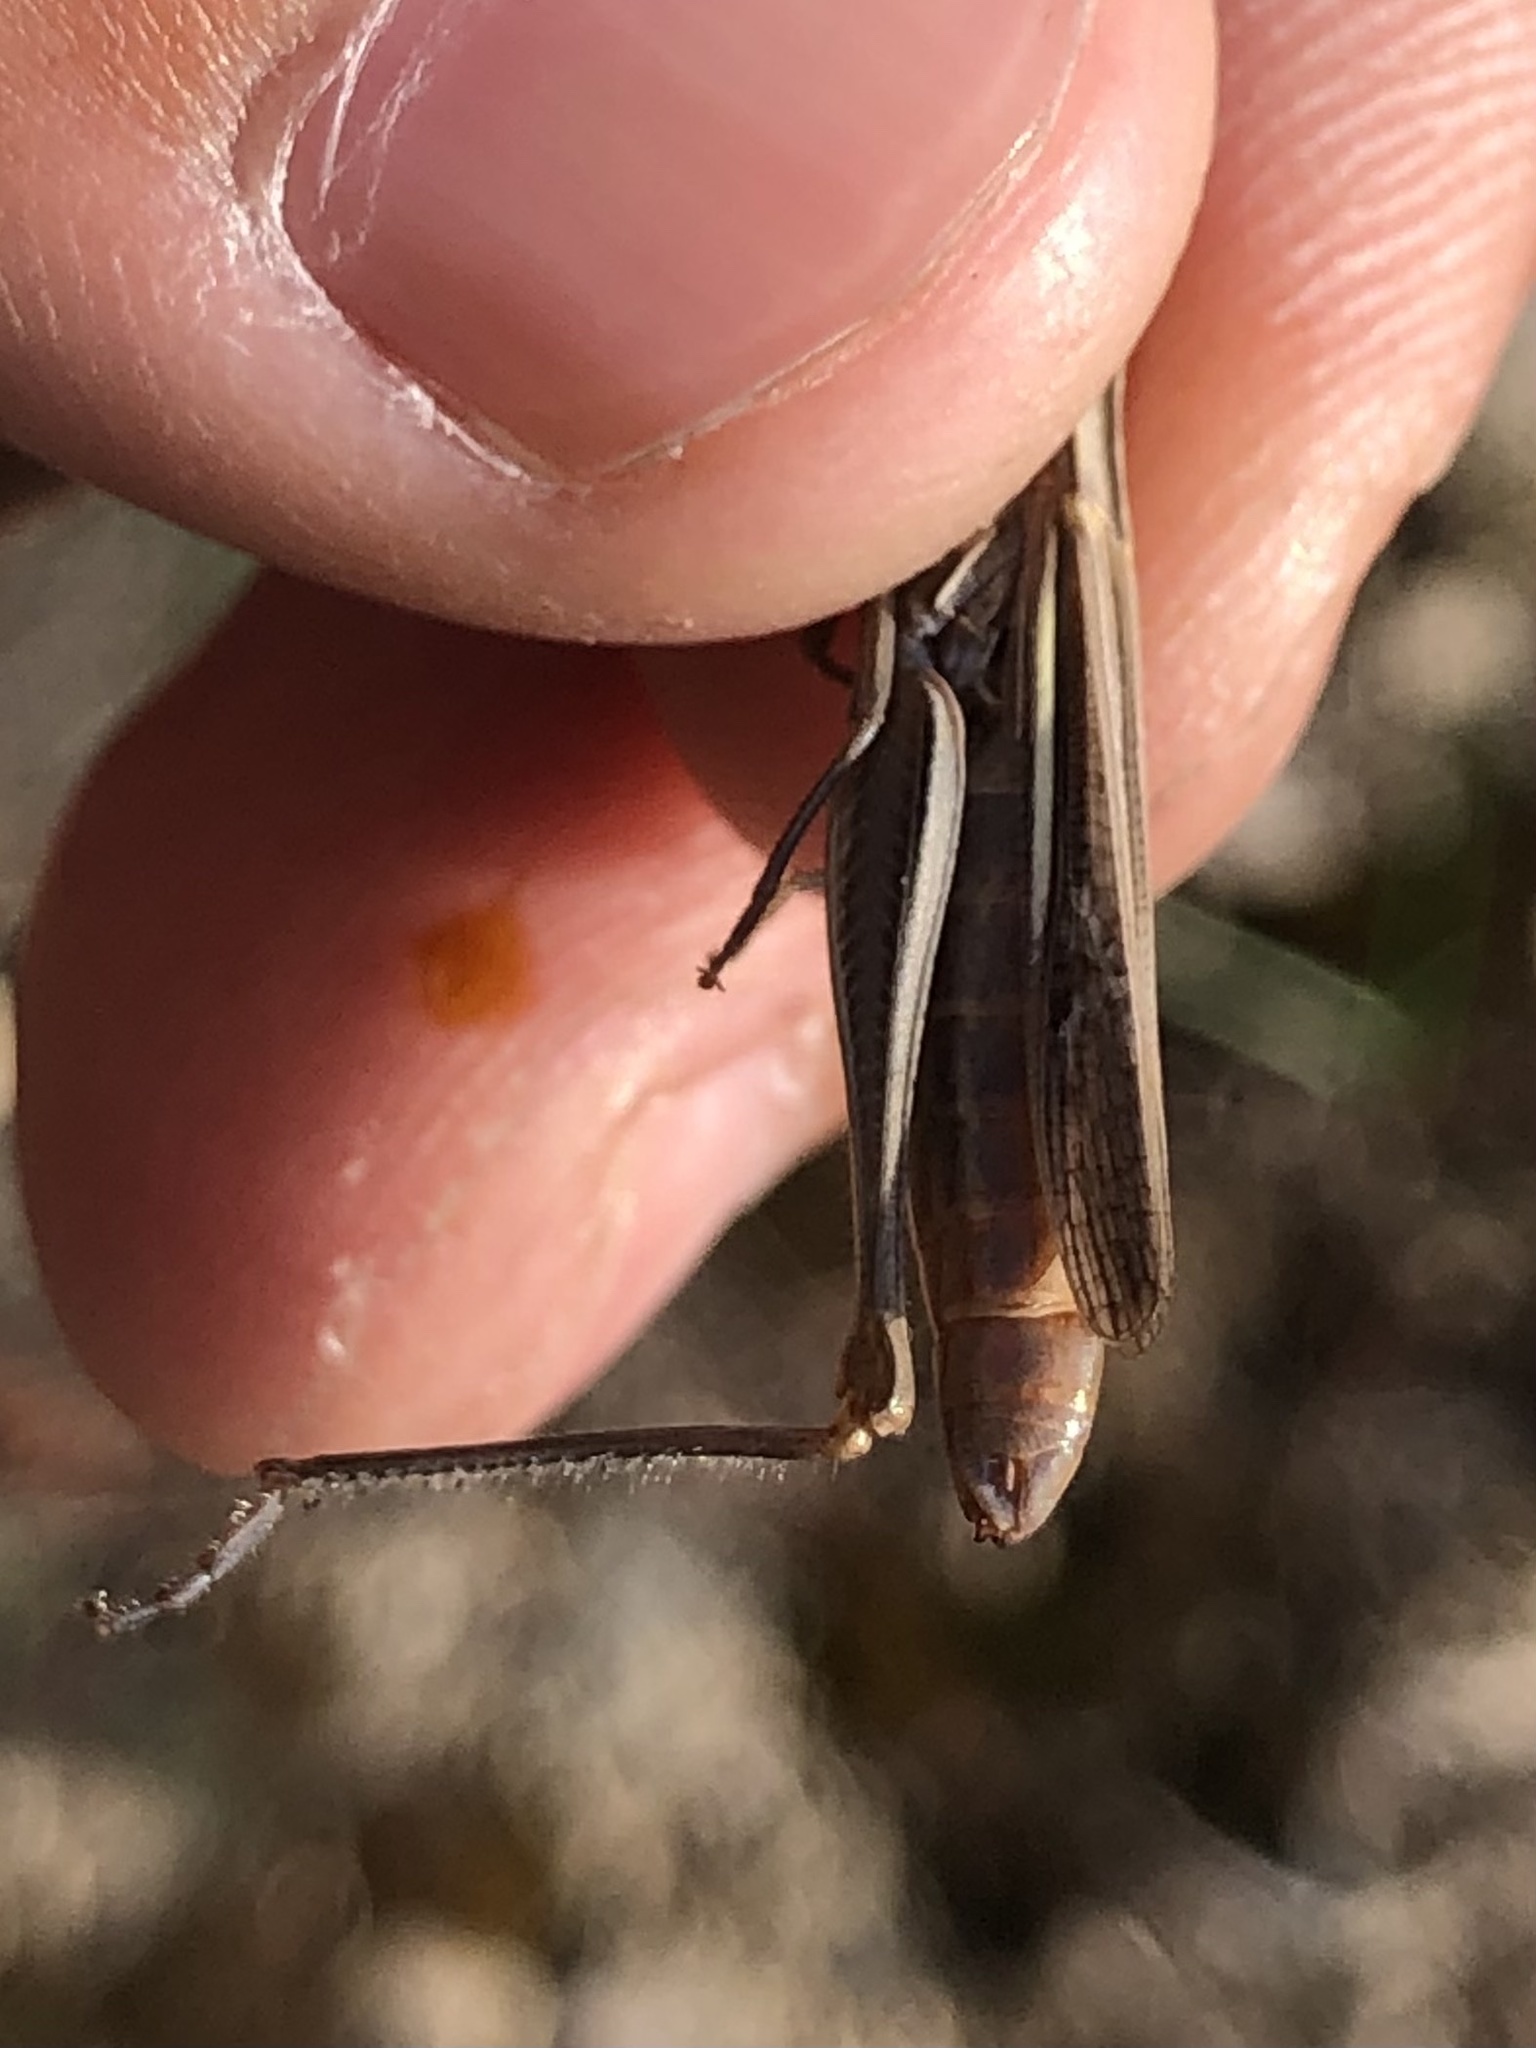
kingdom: Animalia
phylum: Arthropoda
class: Insecta
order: Orthoptera
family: Acrididae
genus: Euchorthippus
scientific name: Euchorthippus chopardi
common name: Iberian straw grasshopper
